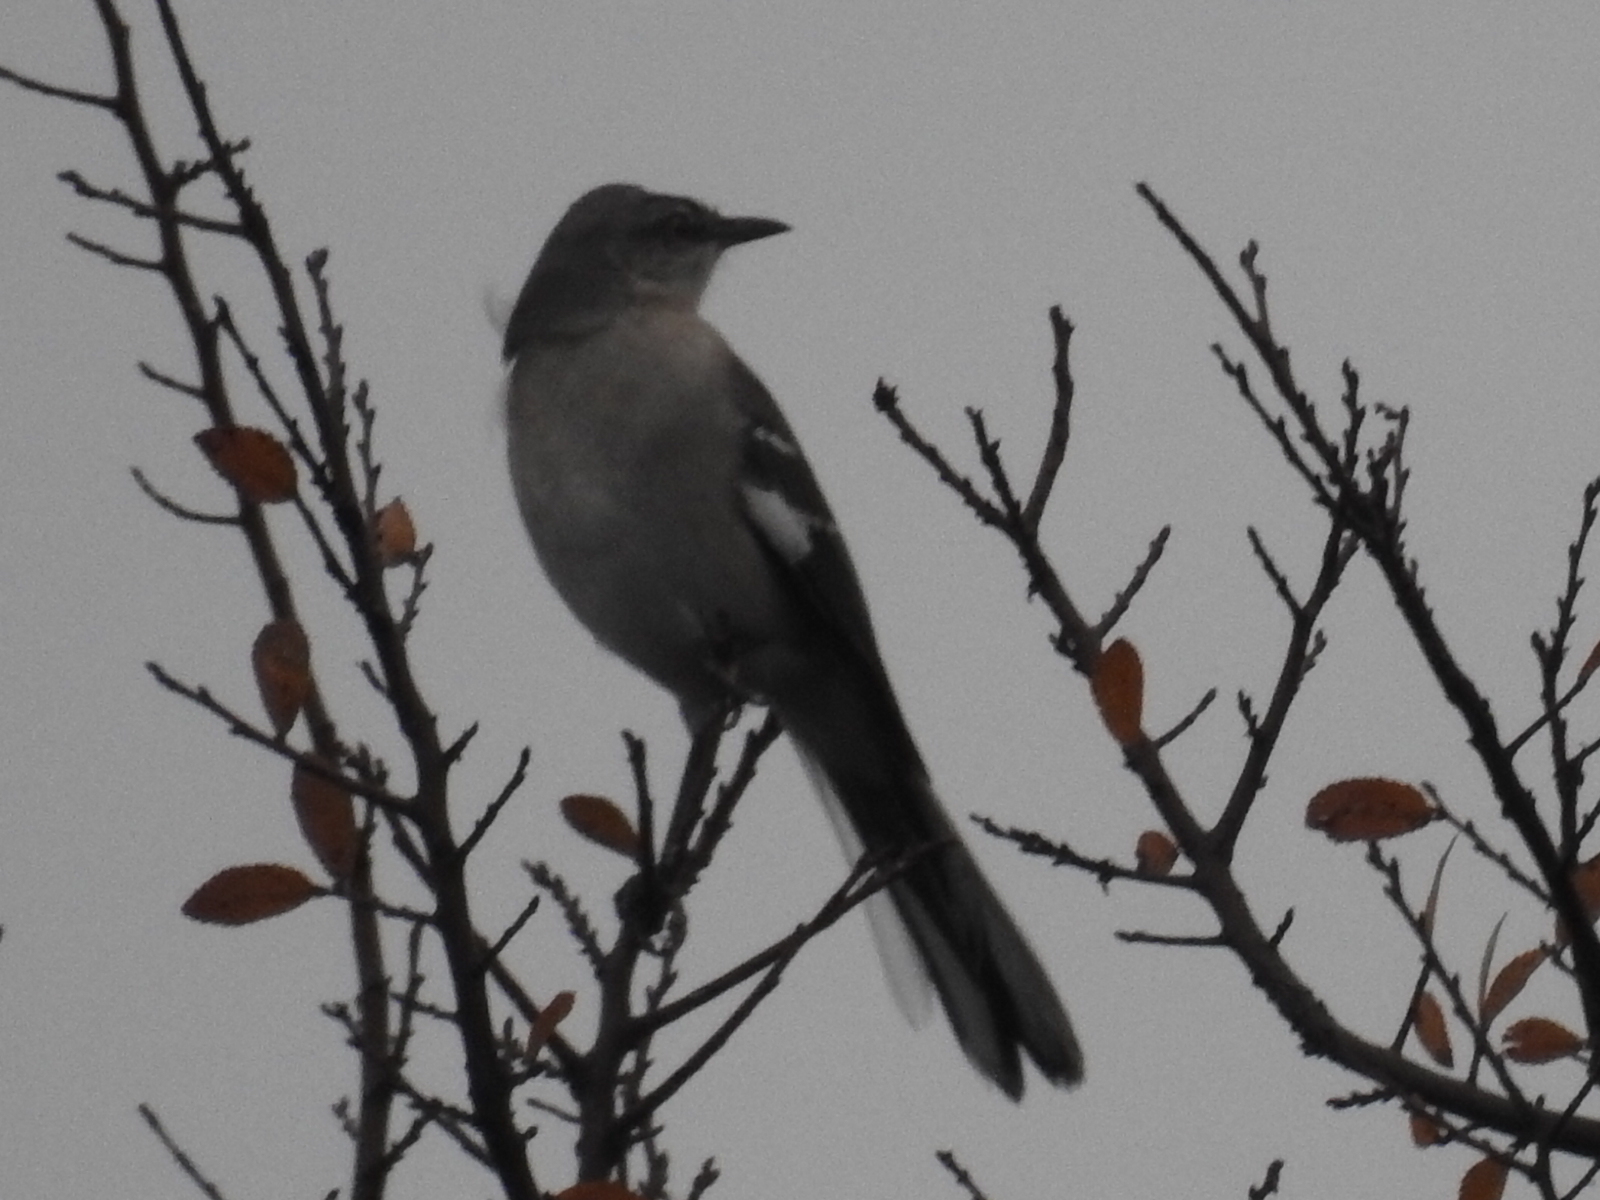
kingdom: Animalia
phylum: Chordata
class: Aves
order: Passeriformes
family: Mimidae
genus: Mimus
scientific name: Mimus polyglottos
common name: Northern mockingbird
